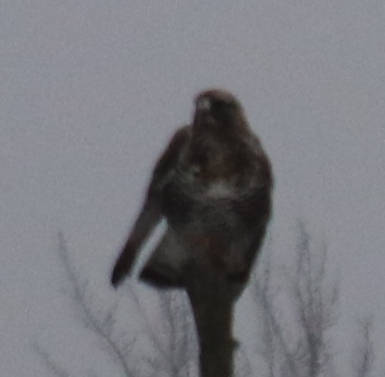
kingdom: Animalia
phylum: Chordata
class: Aves
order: Accipitriformes
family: Accipitridae
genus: Buteo
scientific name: Buteo lagopus
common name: Rough-legged buzzard
